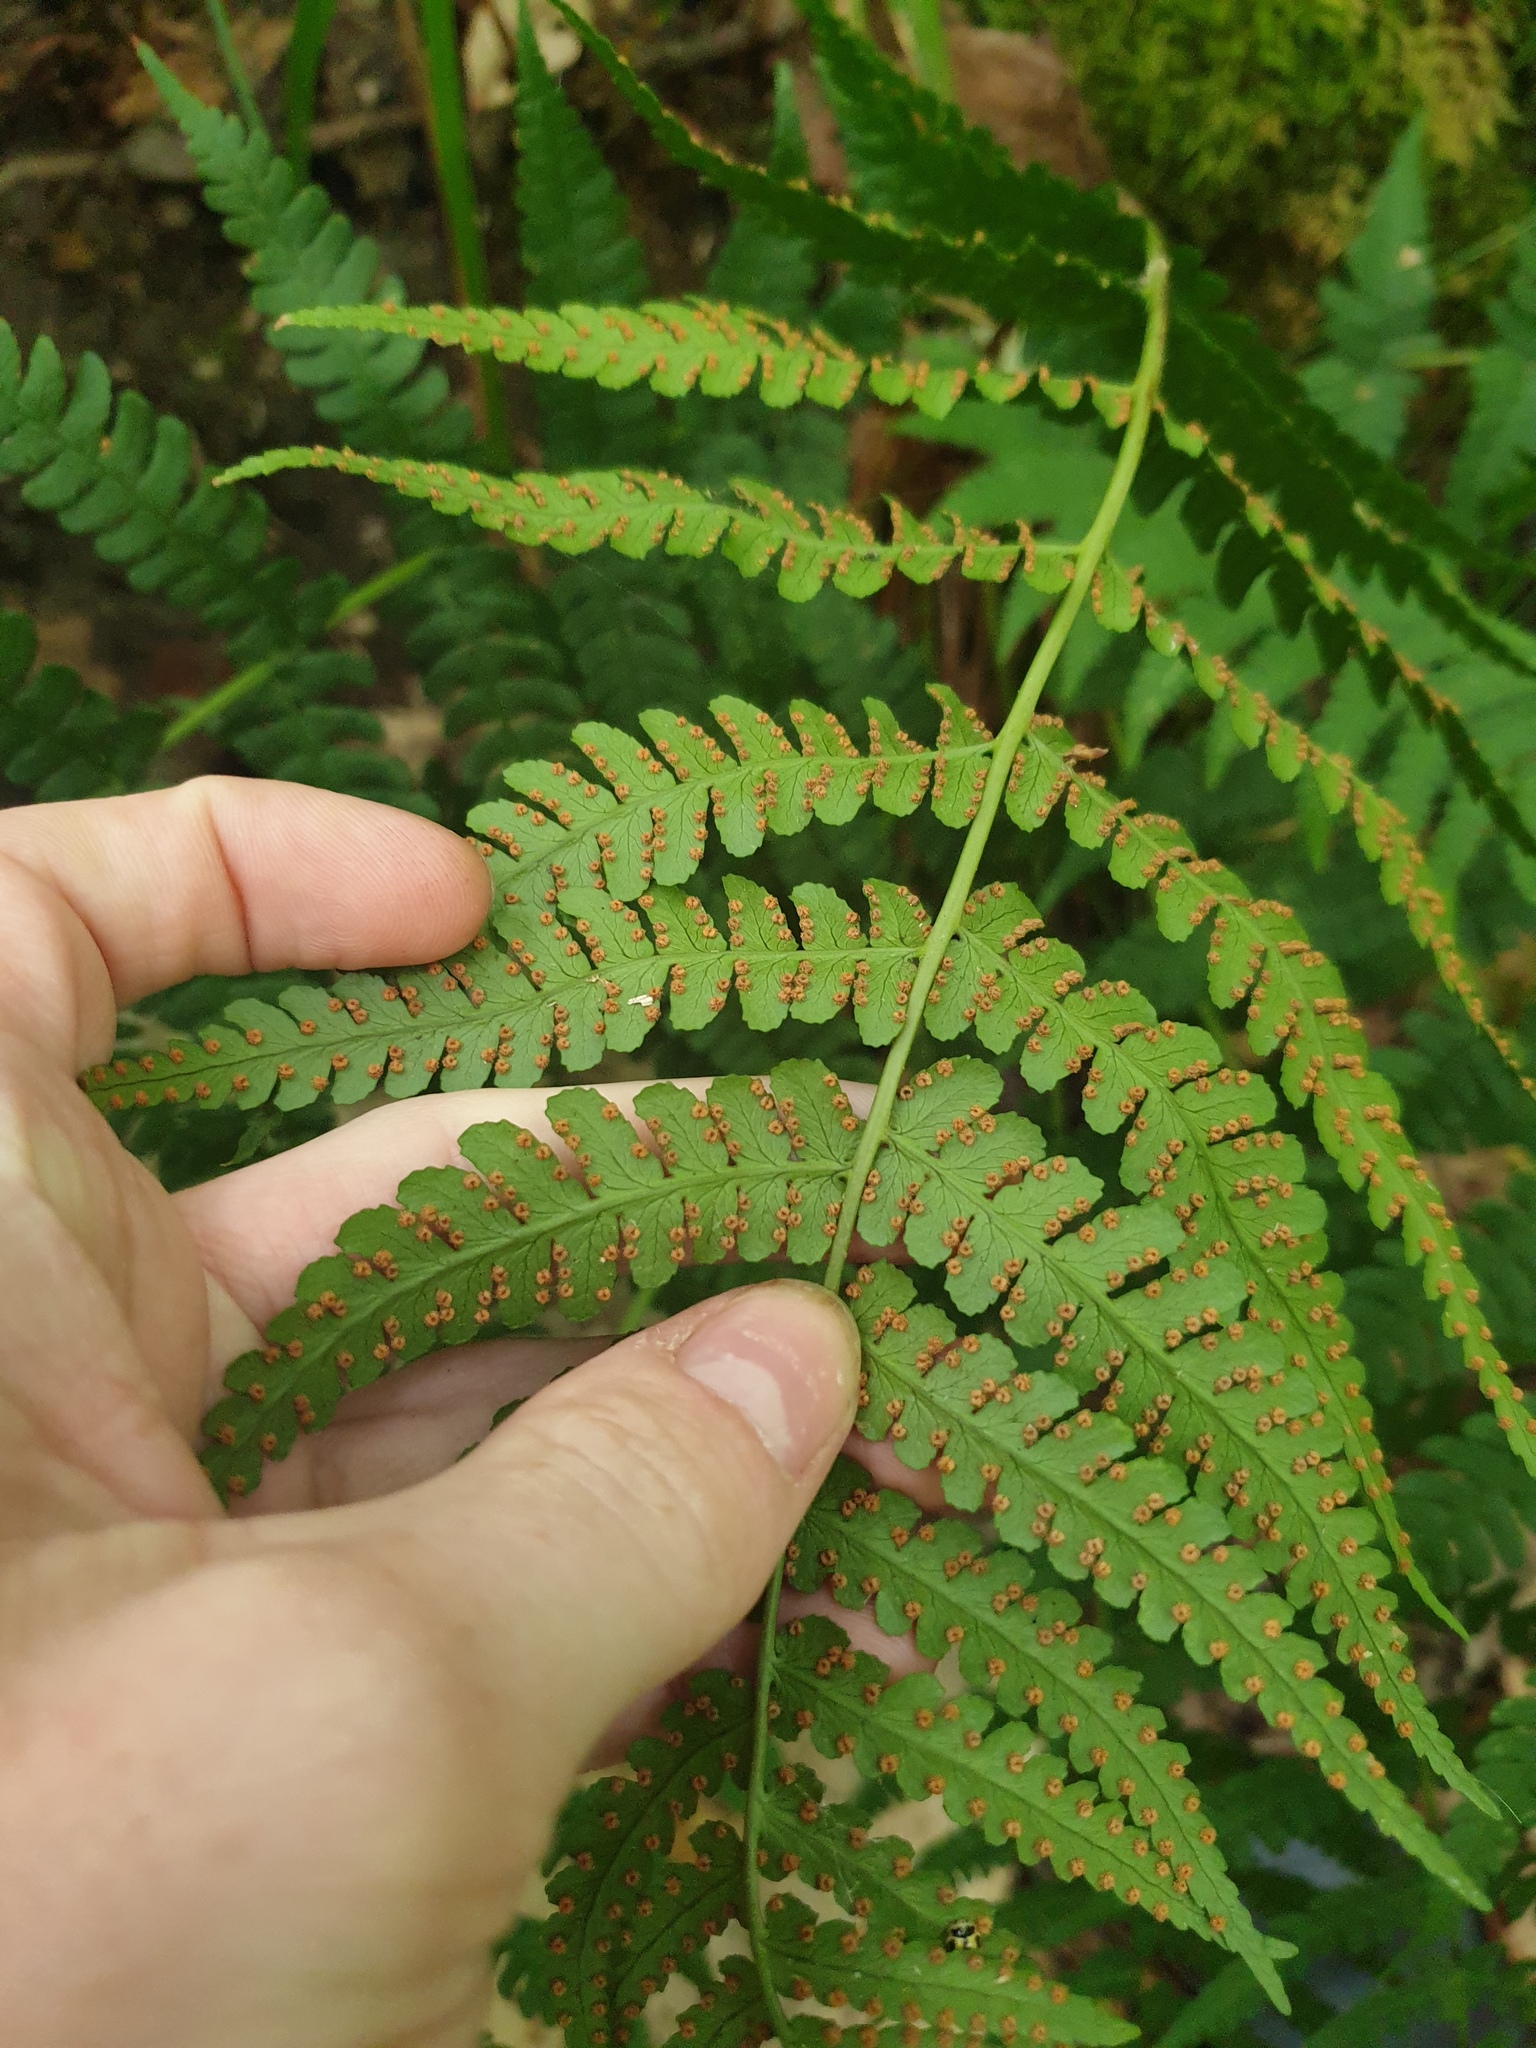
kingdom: Plantae
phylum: Tracheophyta
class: Polypodiopsida
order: Polypodiales
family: Dryopteridaceae
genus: Dryopteris
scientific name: Dryopteris marginalis
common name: Marginal wood fern
